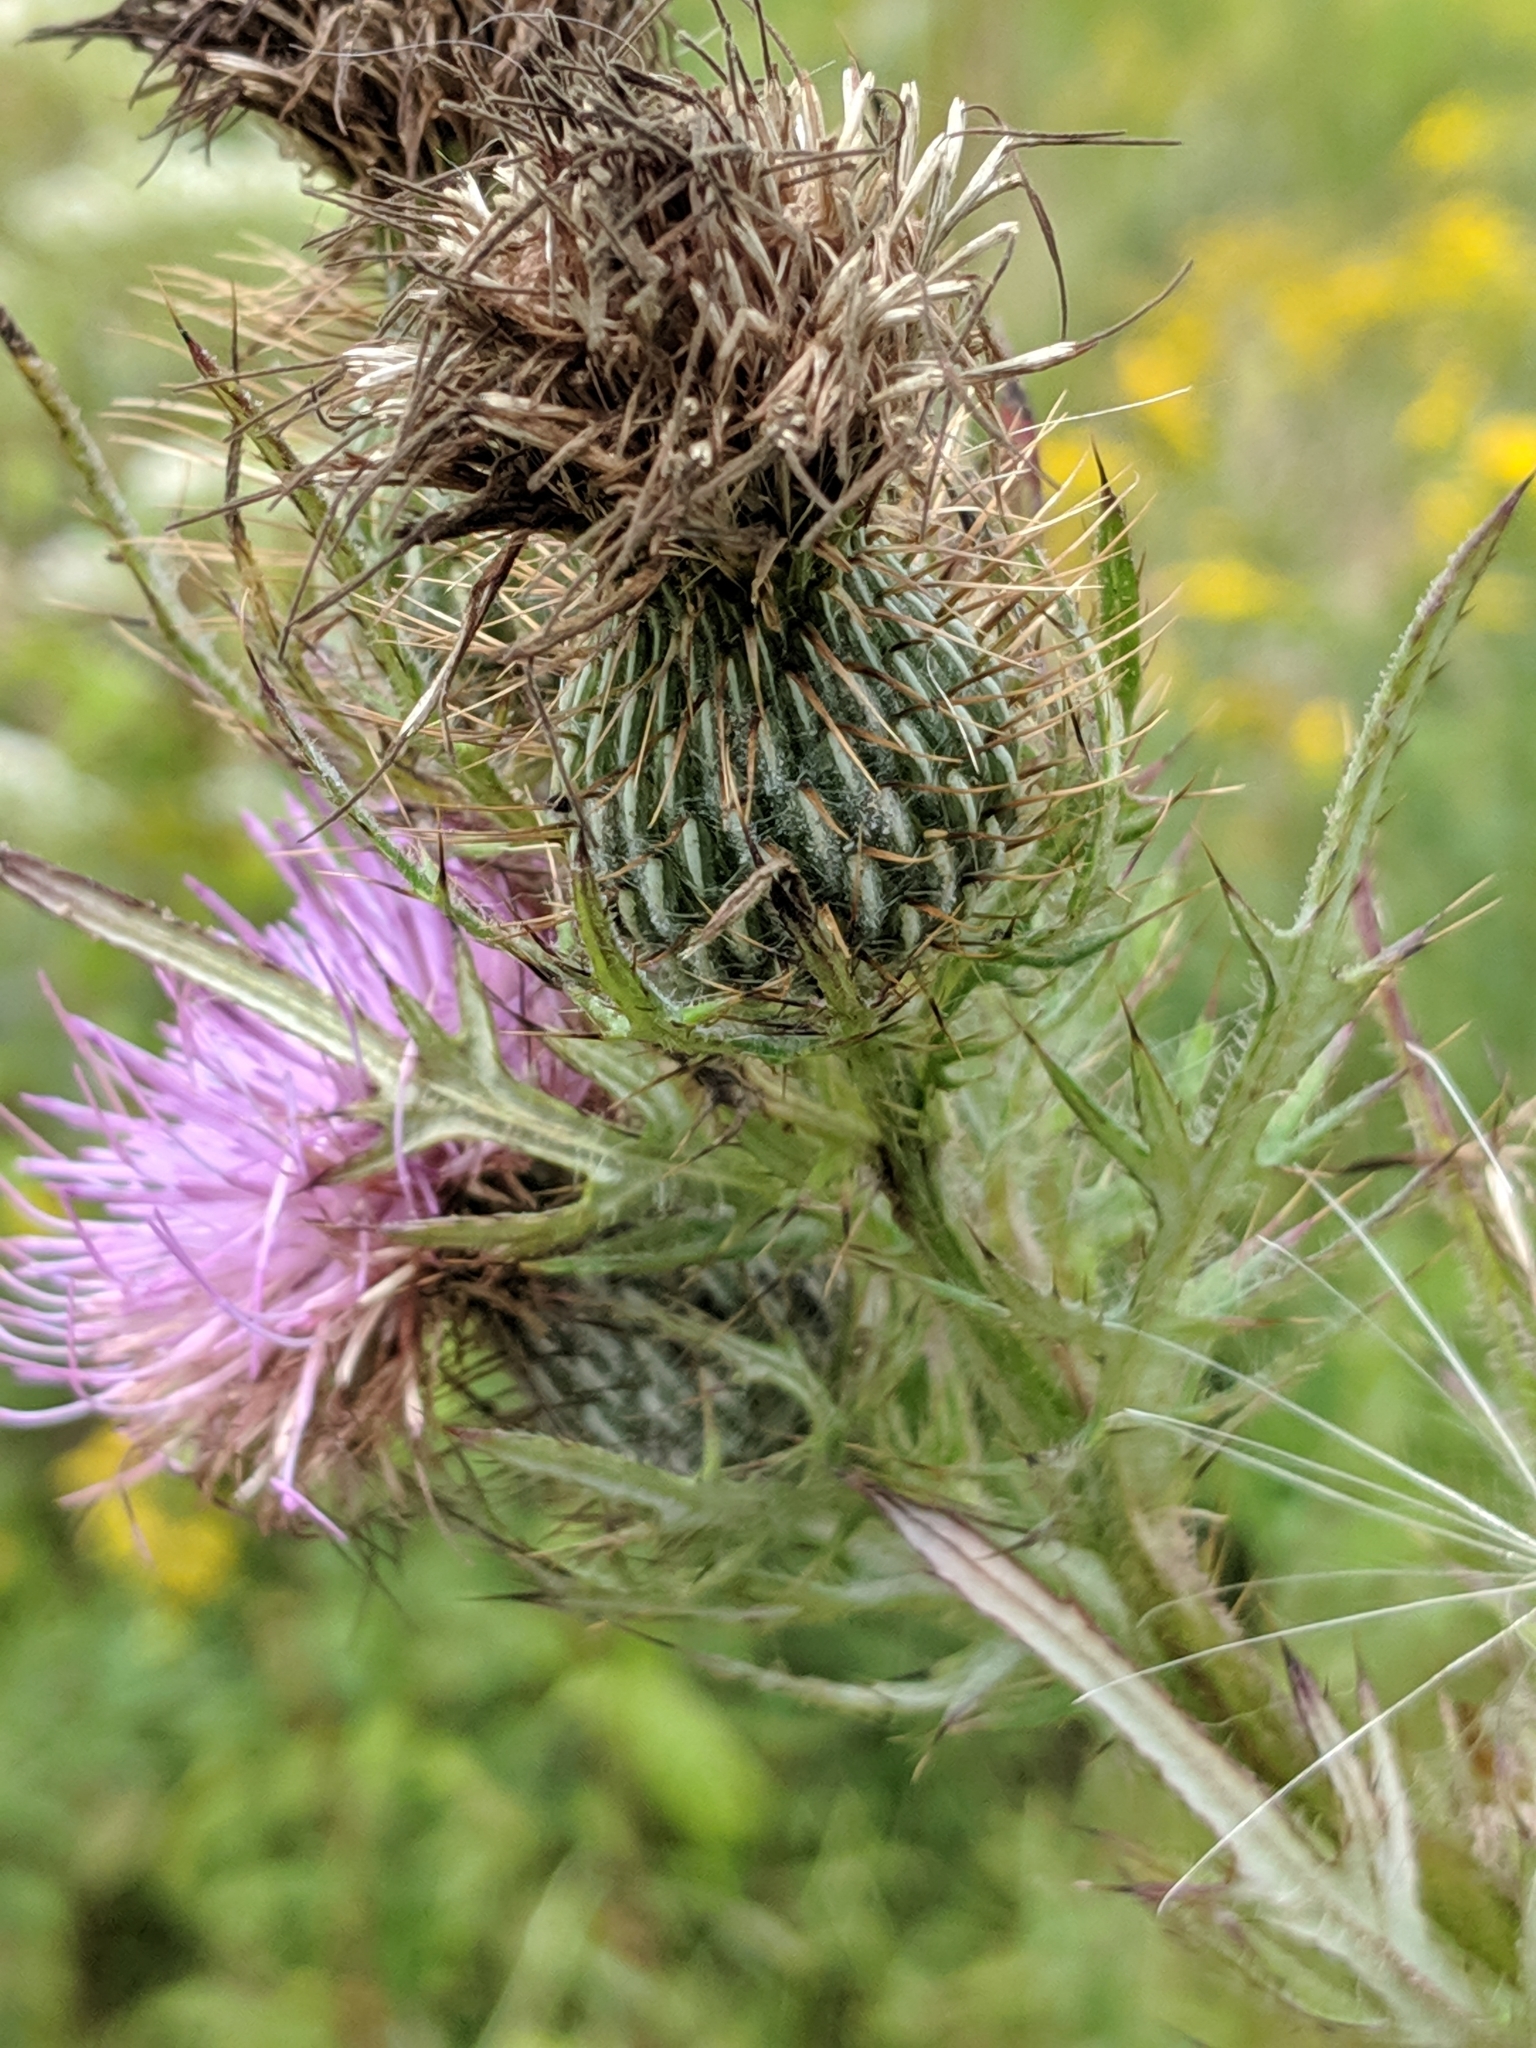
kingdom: Plantae
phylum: Tracheophyta
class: Magnoliopsida
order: Asterales
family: Asteraceae
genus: Cirsium
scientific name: Cirsium discolor
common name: Field thistle
